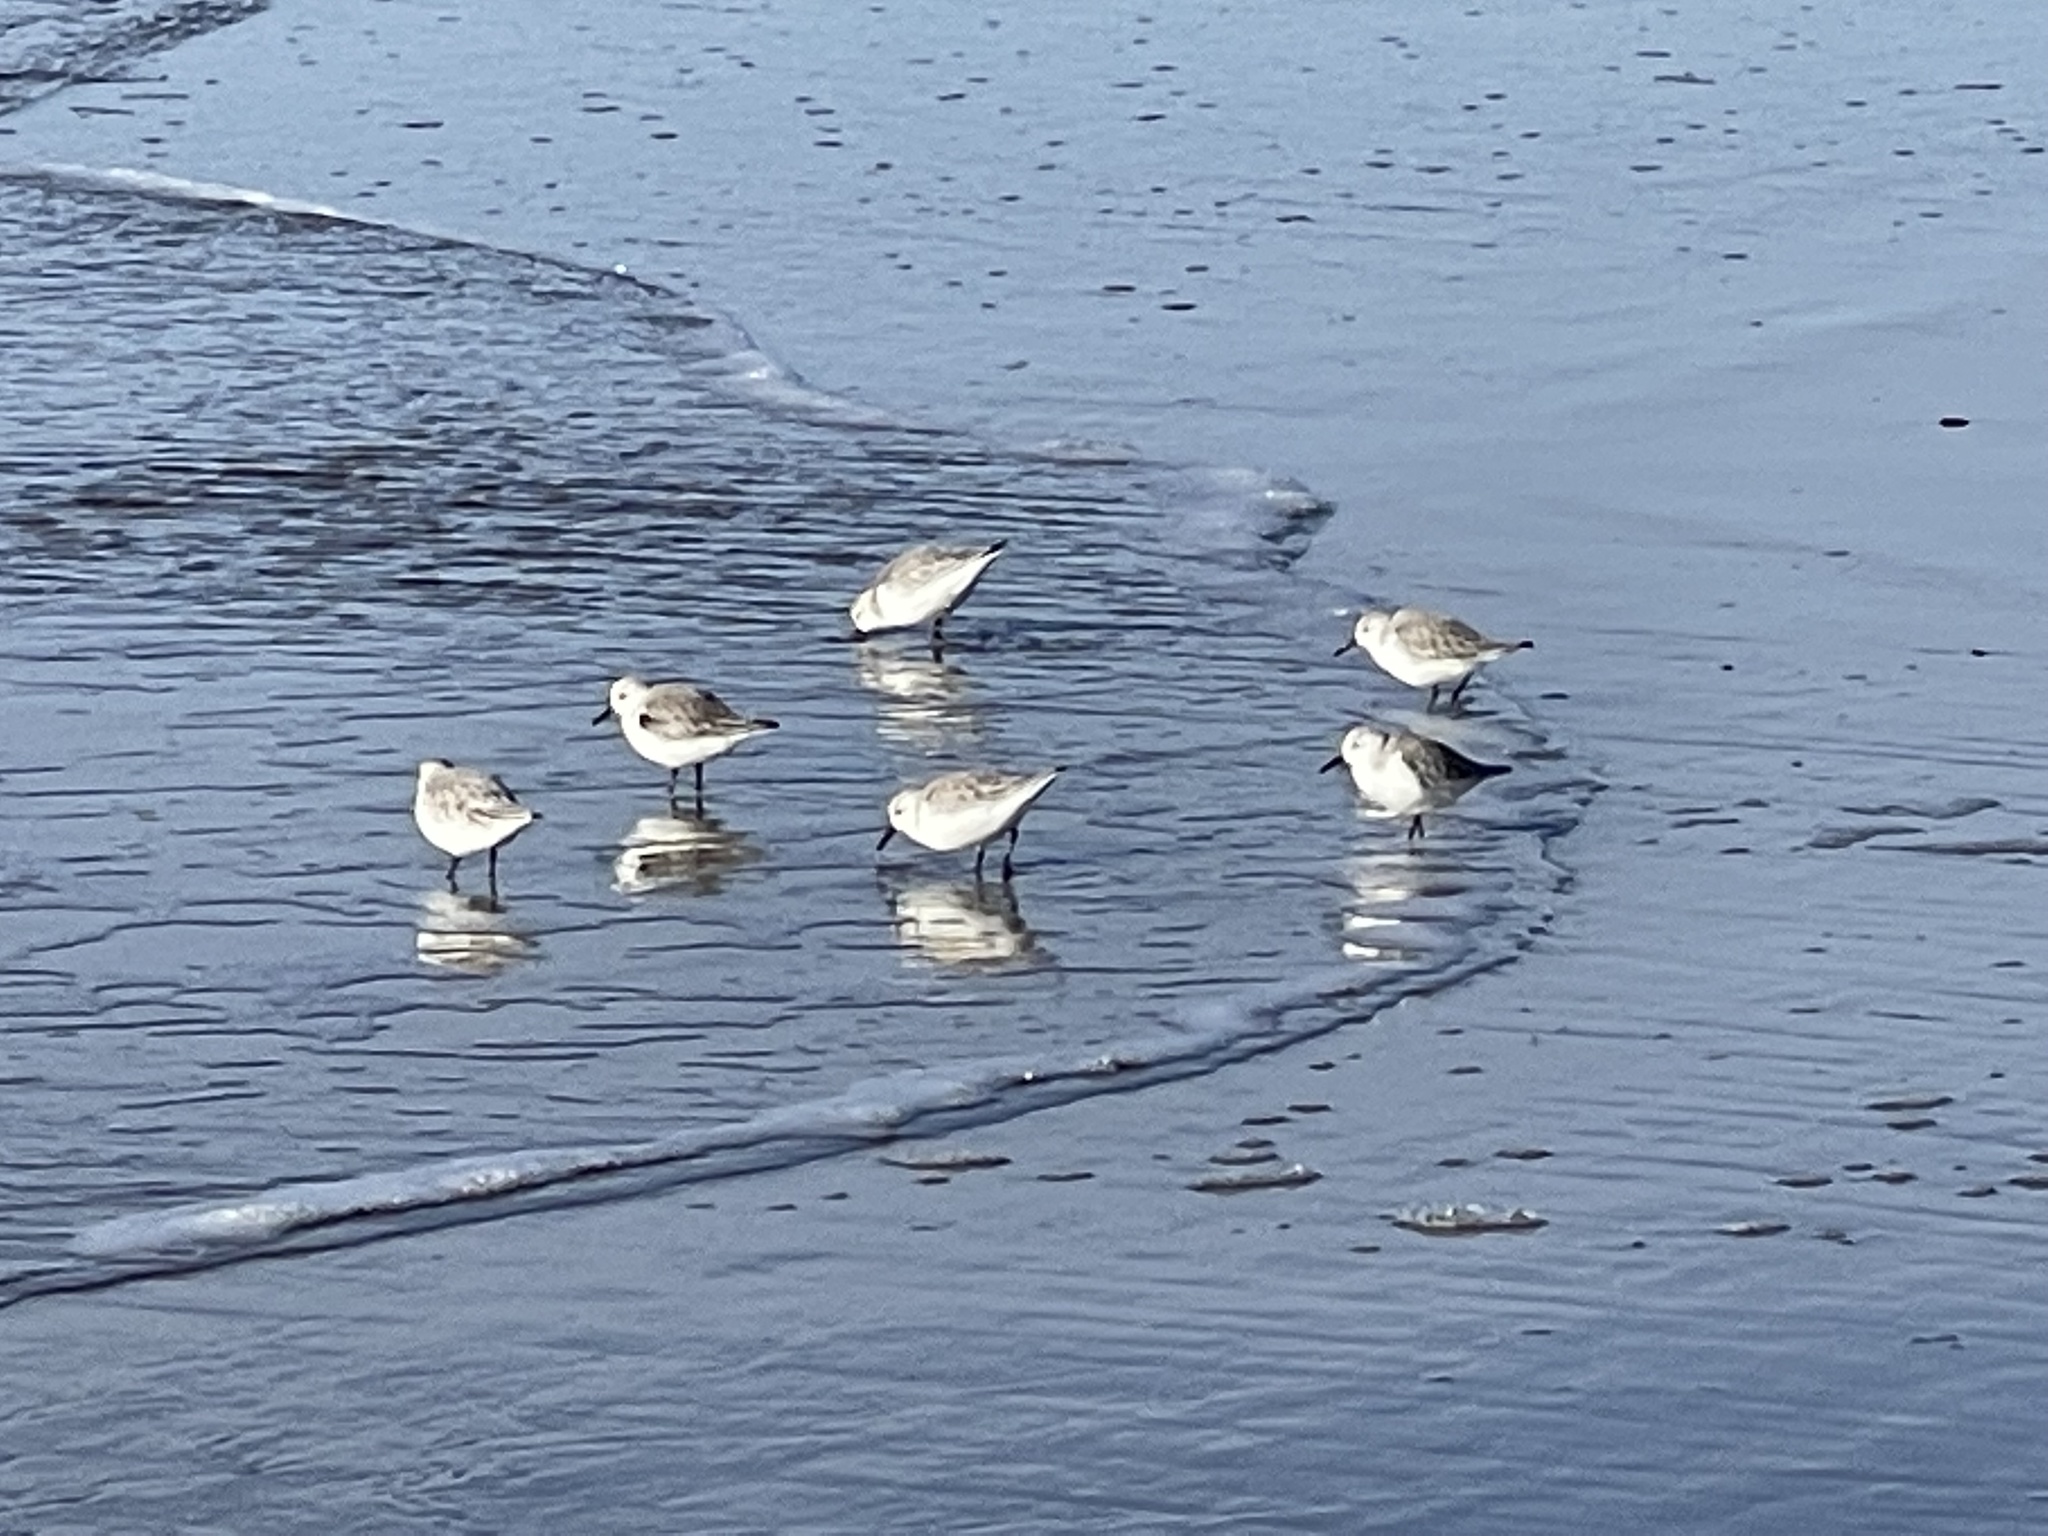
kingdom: Animalia
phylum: Chordata
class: Aves
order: Charadriiformes
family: Scolopacidae
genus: Calidris
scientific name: Calidris alba
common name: Sanderling
